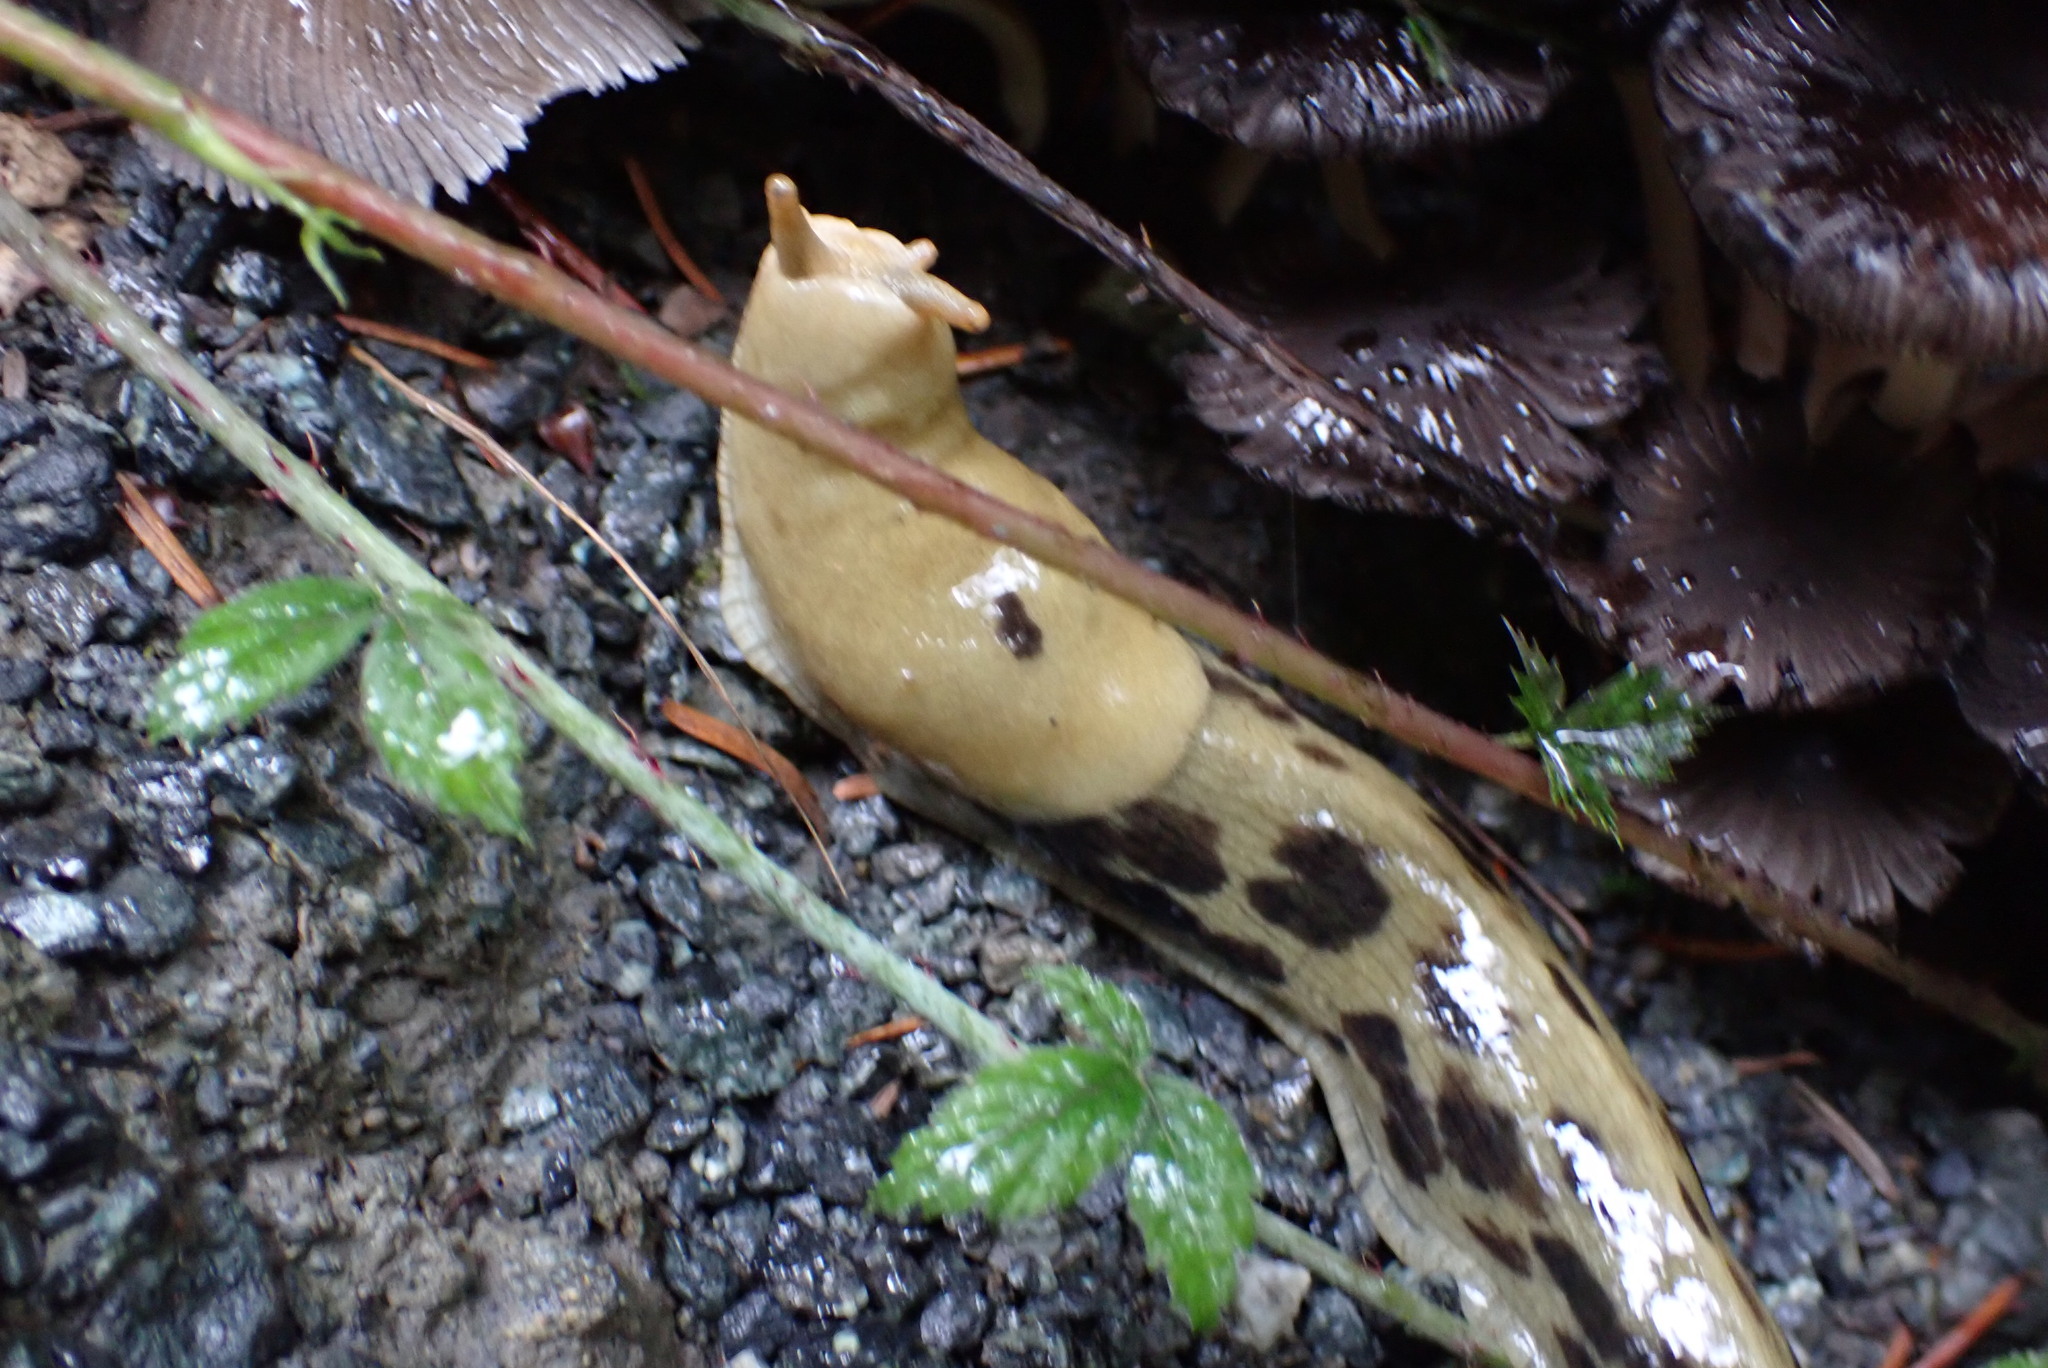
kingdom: Animalia
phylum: Mollusca
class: Gastropoda
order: Stylommatophora
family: Ariolimacidae
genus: Ariolimax
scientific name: Ariolimax columbianus
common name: Pacific banana slug
